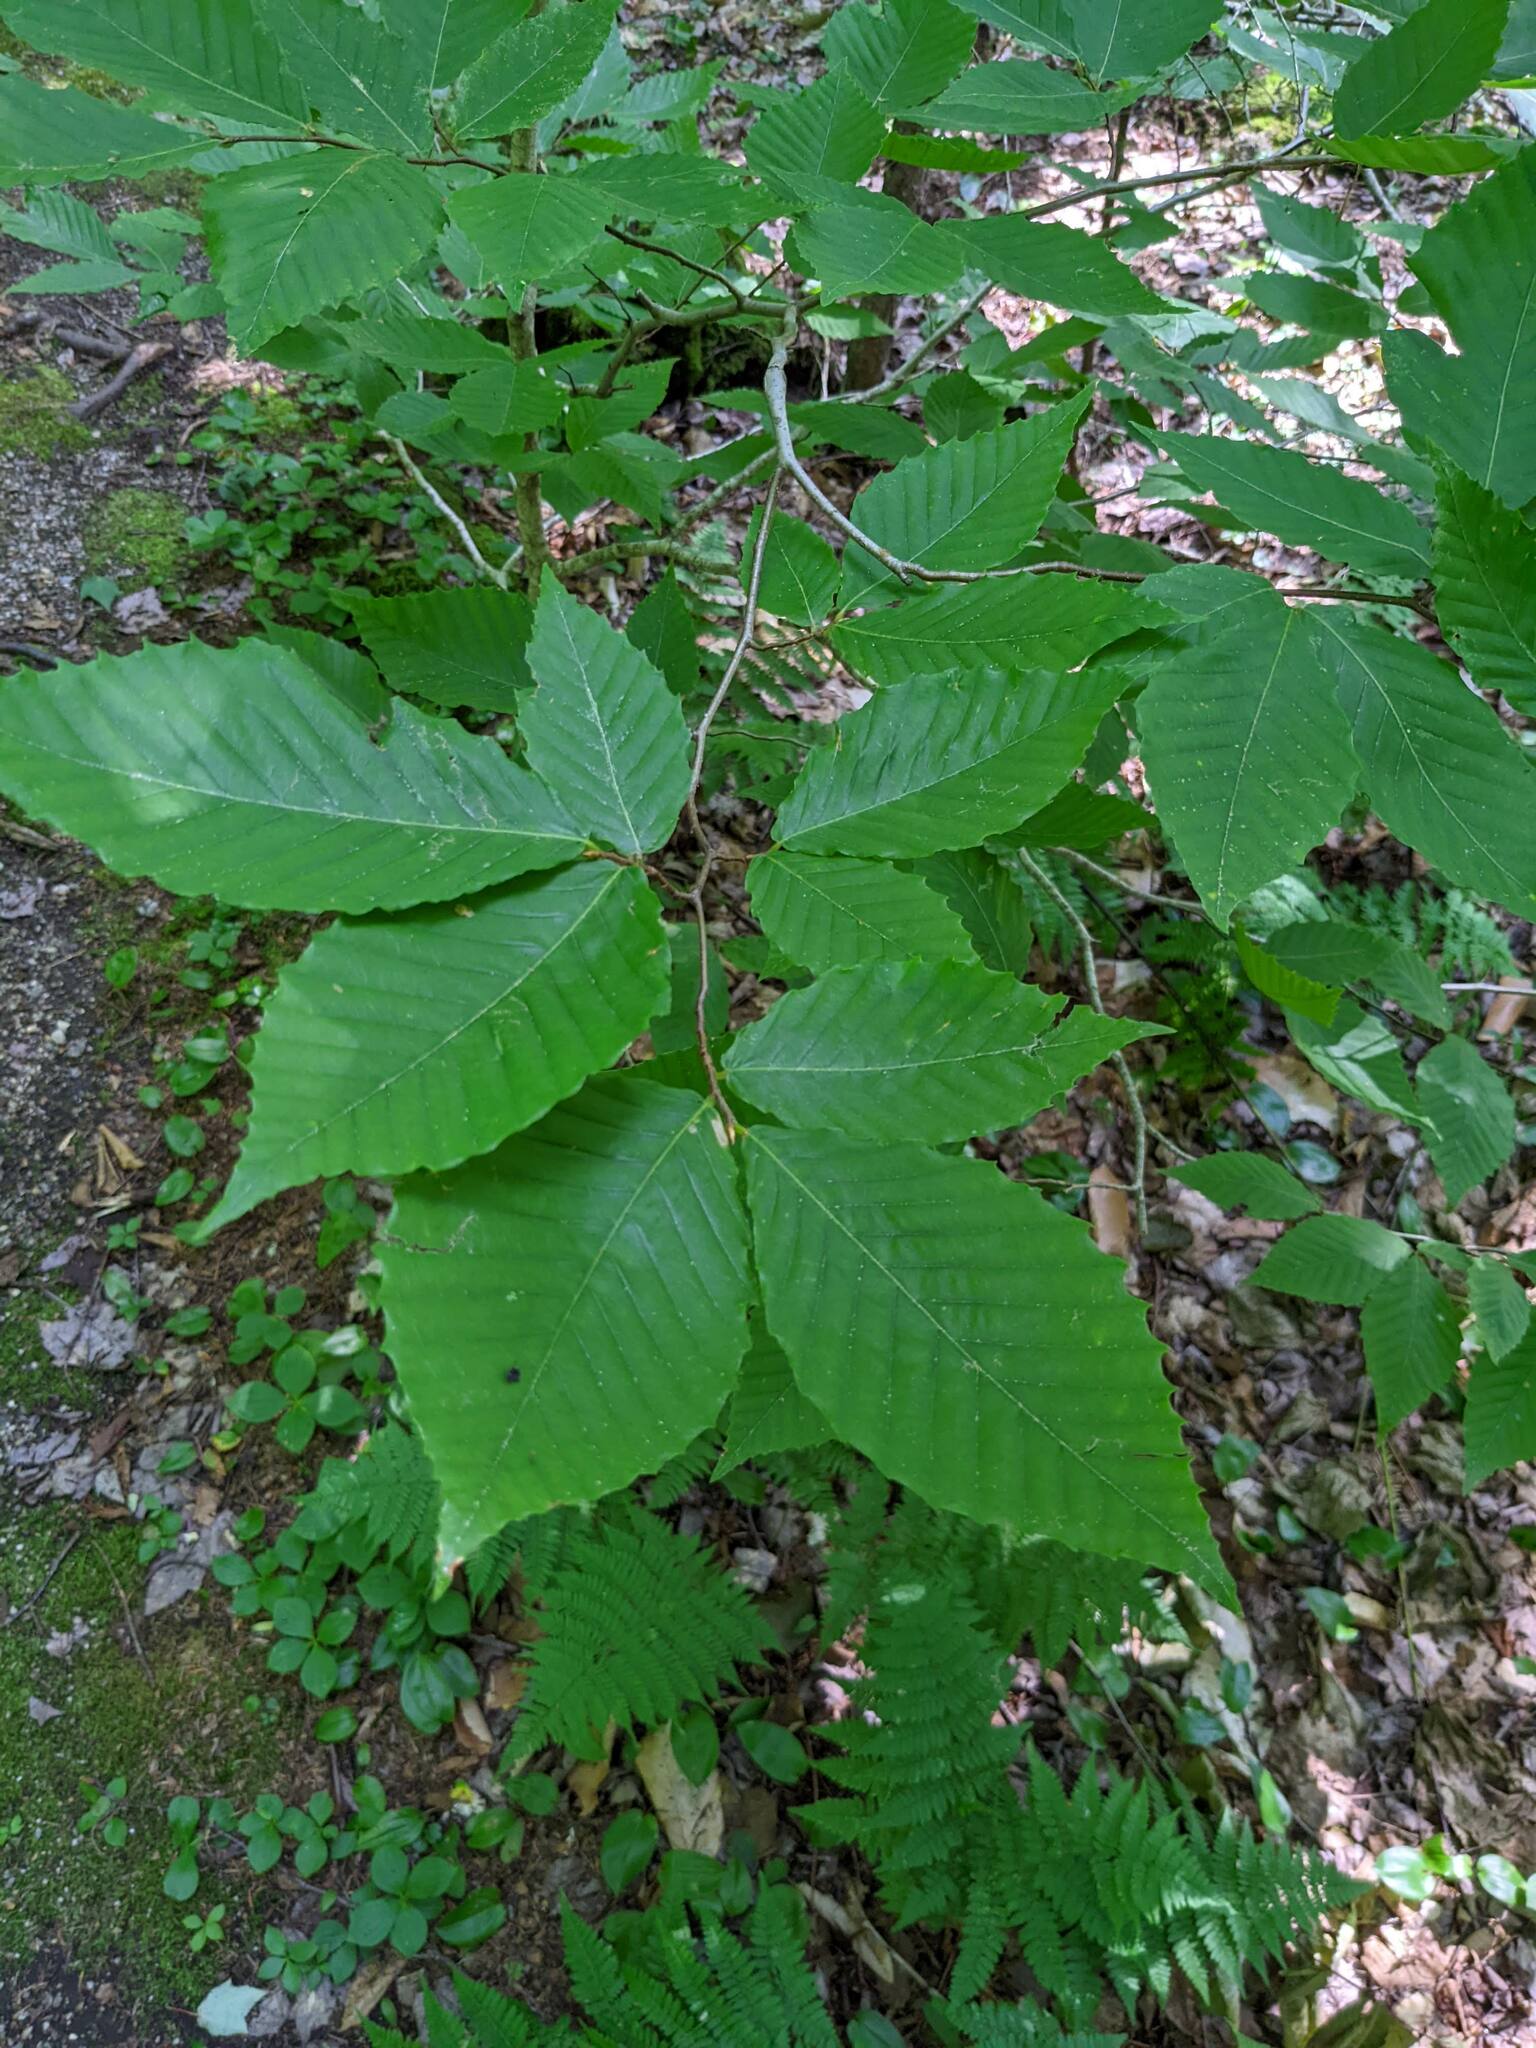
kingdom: Plantae
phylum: Tracheophyta
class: Magnoliopsida
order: Fagales
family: Fagaceae
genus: Fagus
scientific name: Fagus grandifolia
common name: American beech
